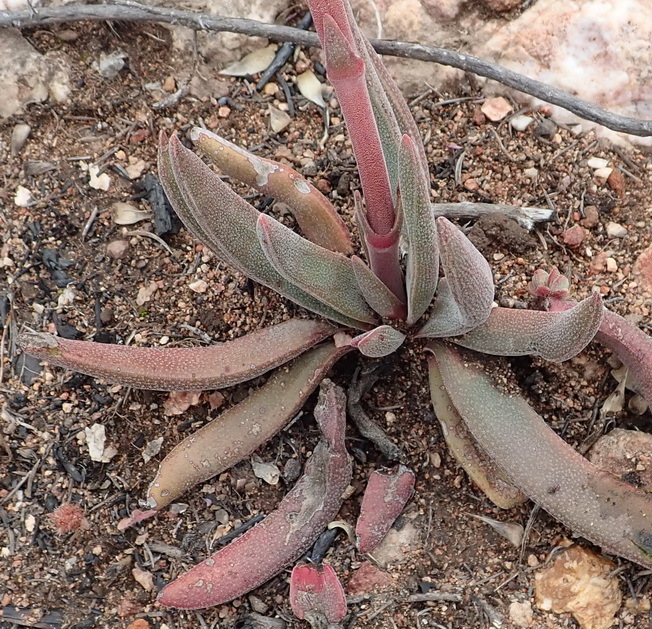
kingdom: Plantae
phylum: Tracheophyta
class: Magnoliopsida
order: Saxifragales
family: Crassulaceae
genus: Crassula
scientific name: Crassula pubescens
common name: Jersey pigmyweed
